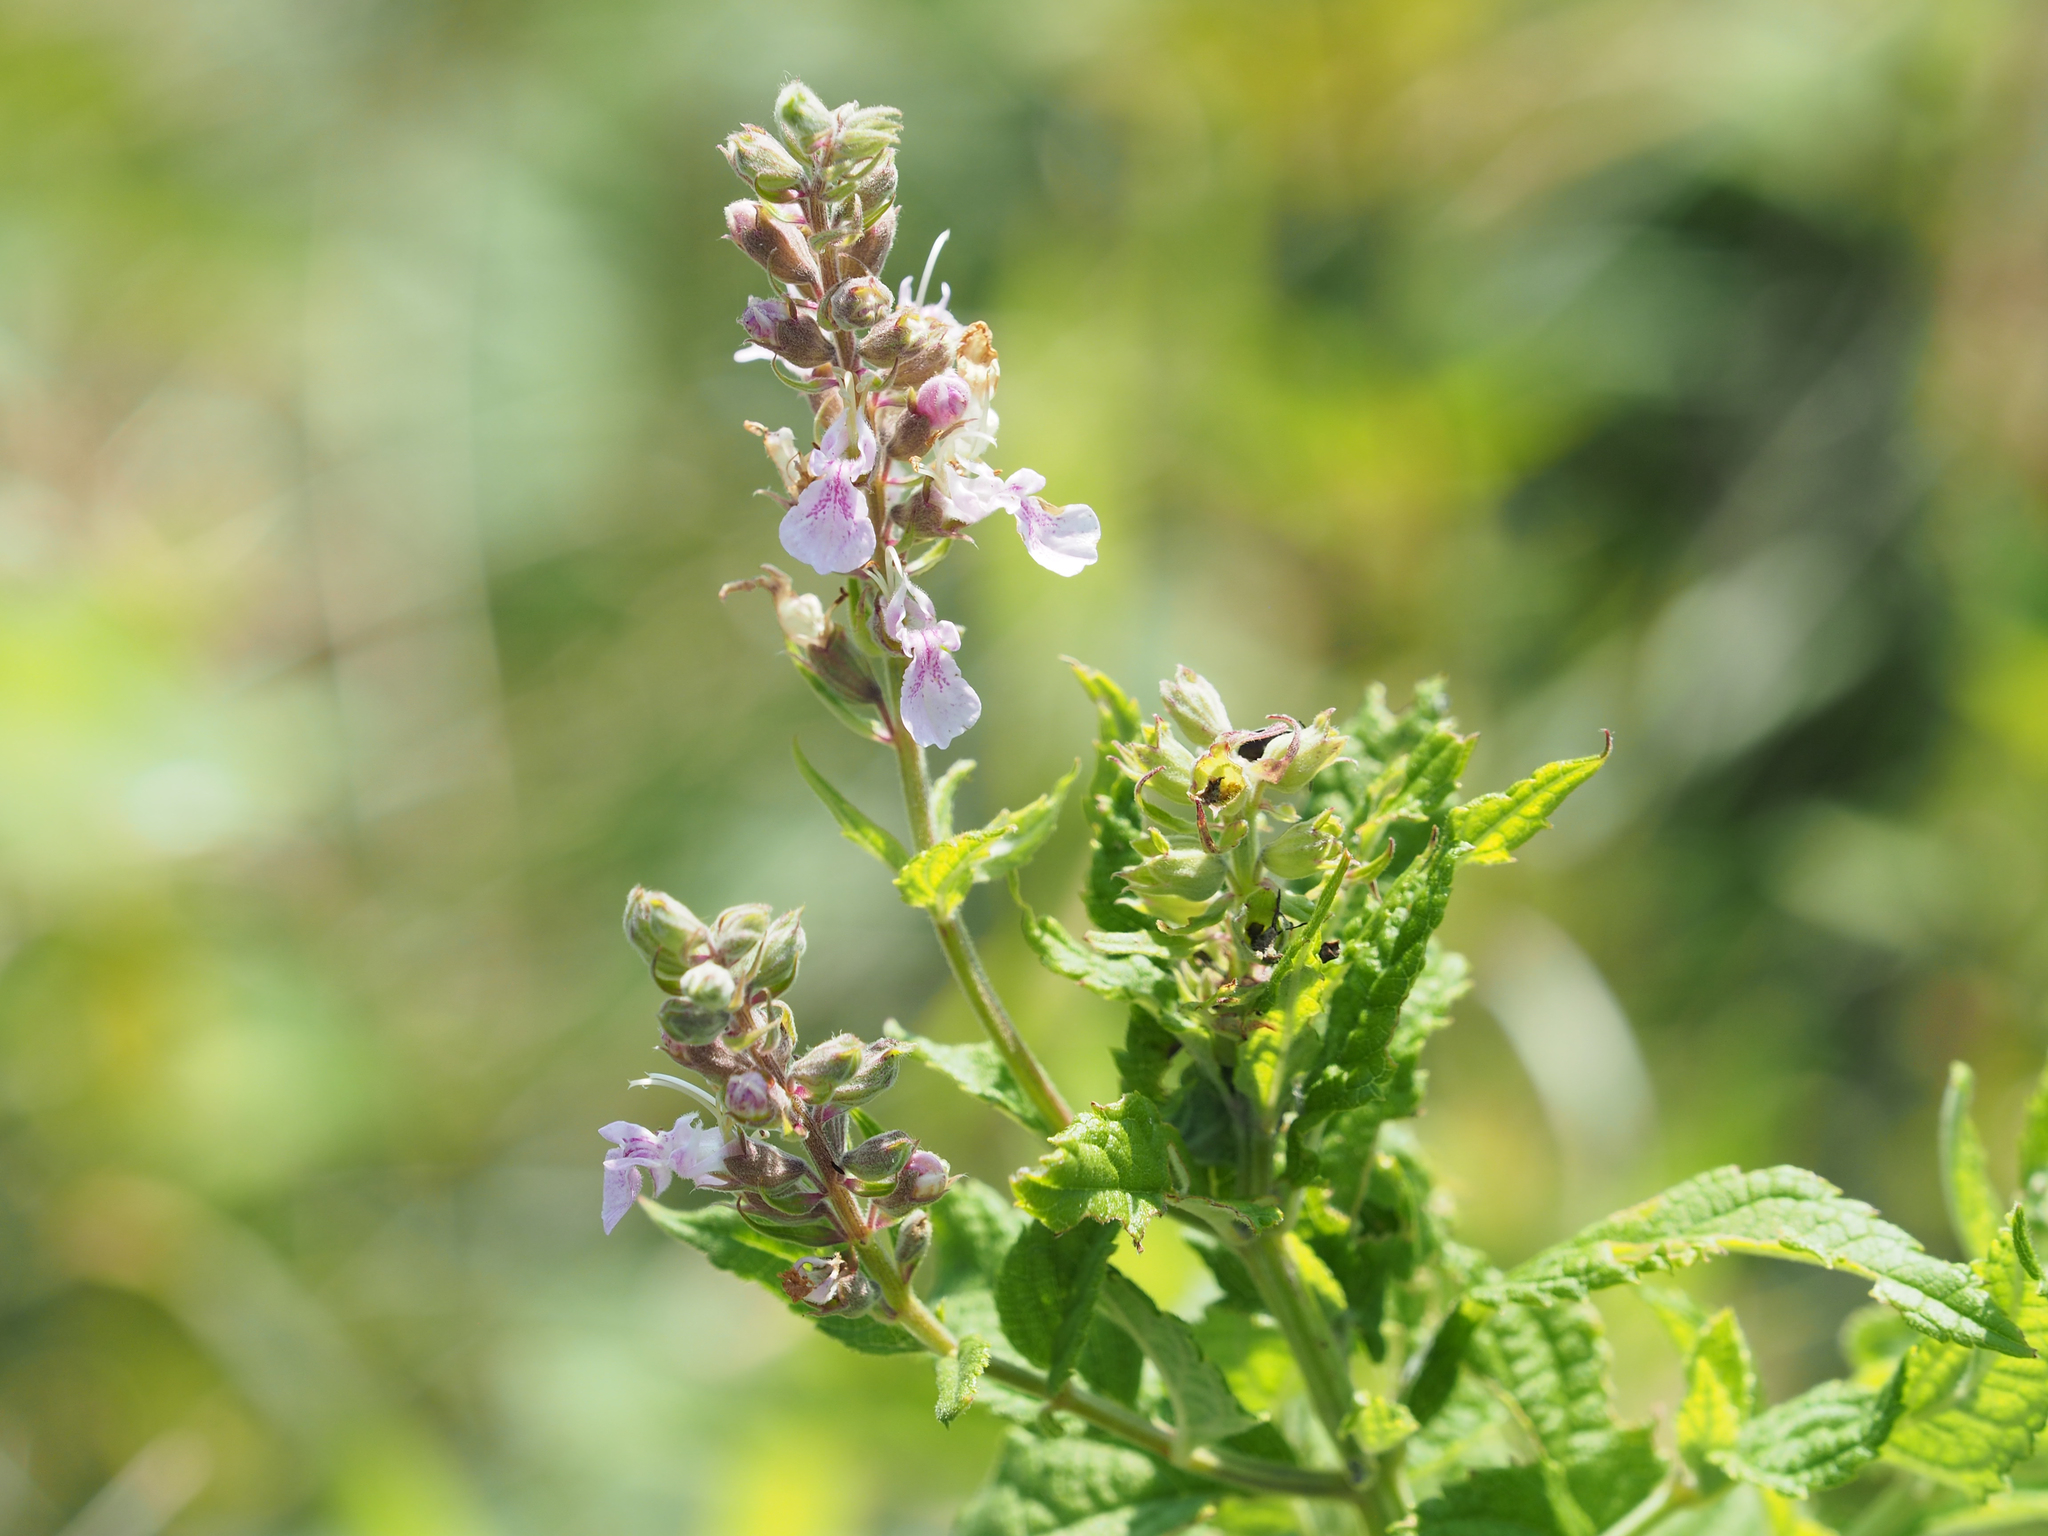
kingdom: Plantae
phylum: Tracheophyta
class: Magnoliopsida
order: Lamiales
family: Lamiaceae
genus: Teucrium
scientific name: Teucrium canadense
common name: American germander
